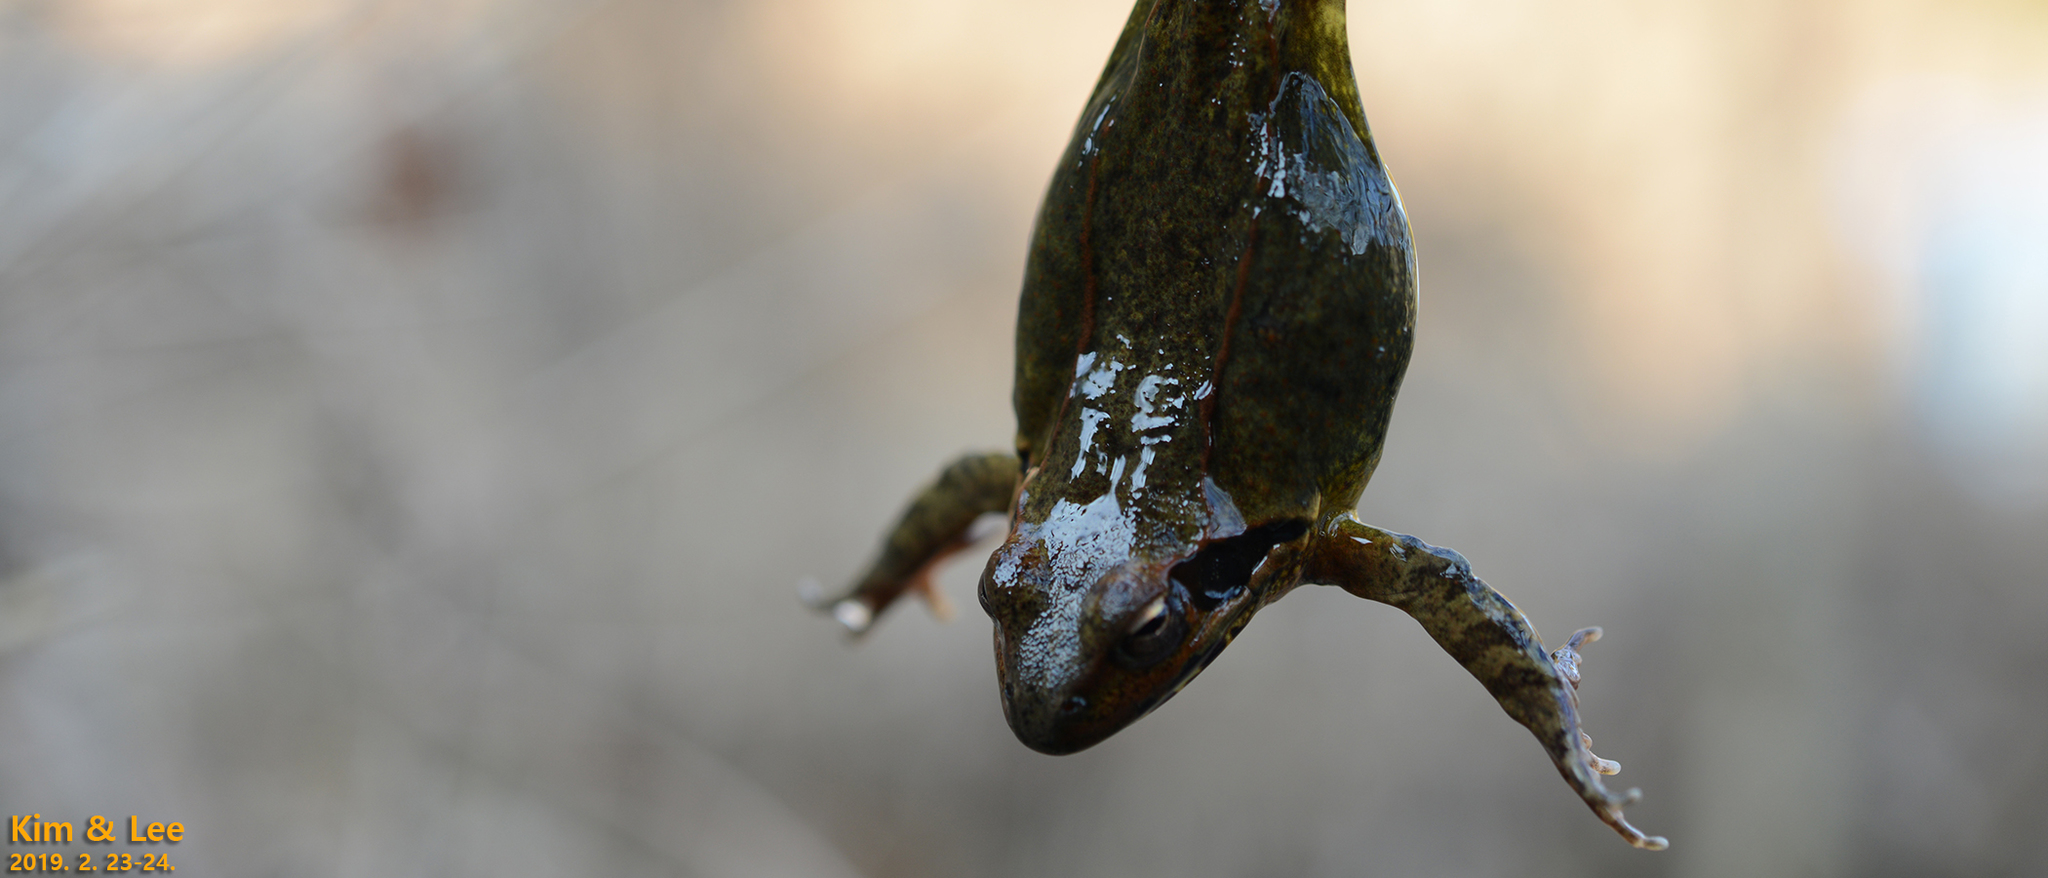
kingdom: Animalia
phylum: Chordata
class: Amphibia
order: Anura
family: Ranidae
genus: Rana
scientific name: Rana uenoi
